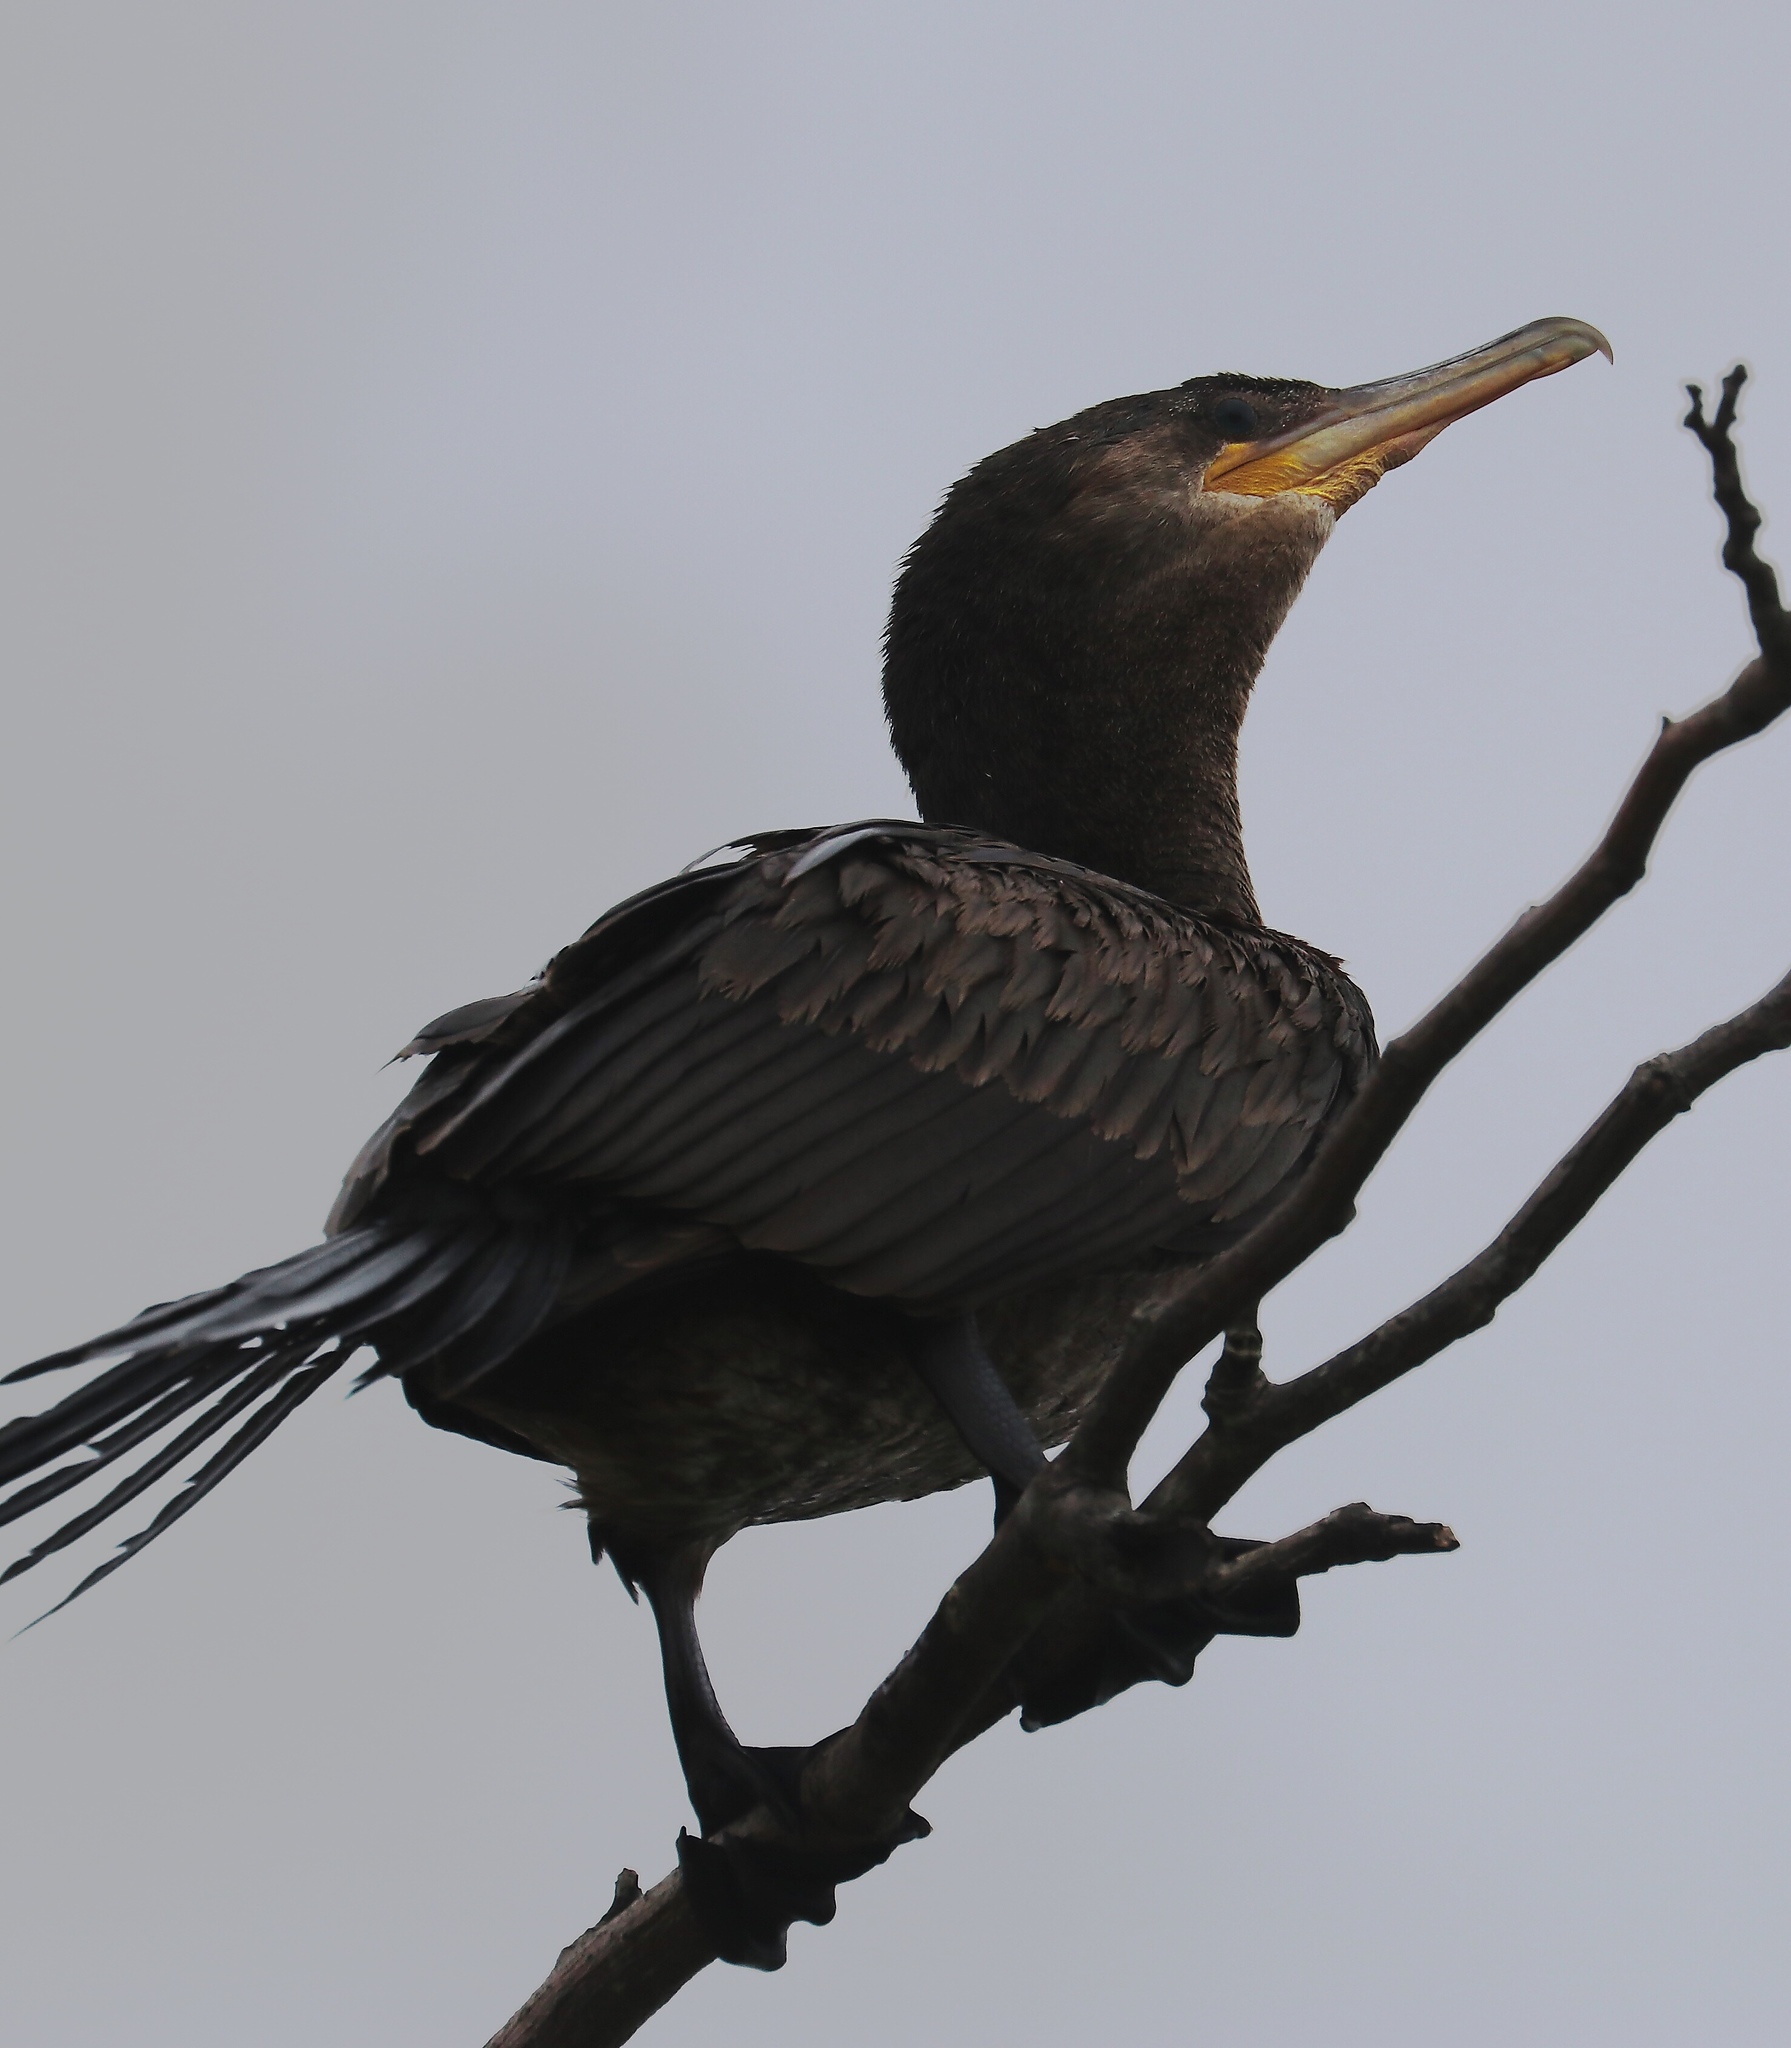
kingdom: Animalia
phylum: Chordata
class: Aves
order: Suliformes
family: Phalacrocoracidae
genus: Phalacrocorax
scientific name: Phalacrocorax brasilianus
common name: Neotropic cormorant
